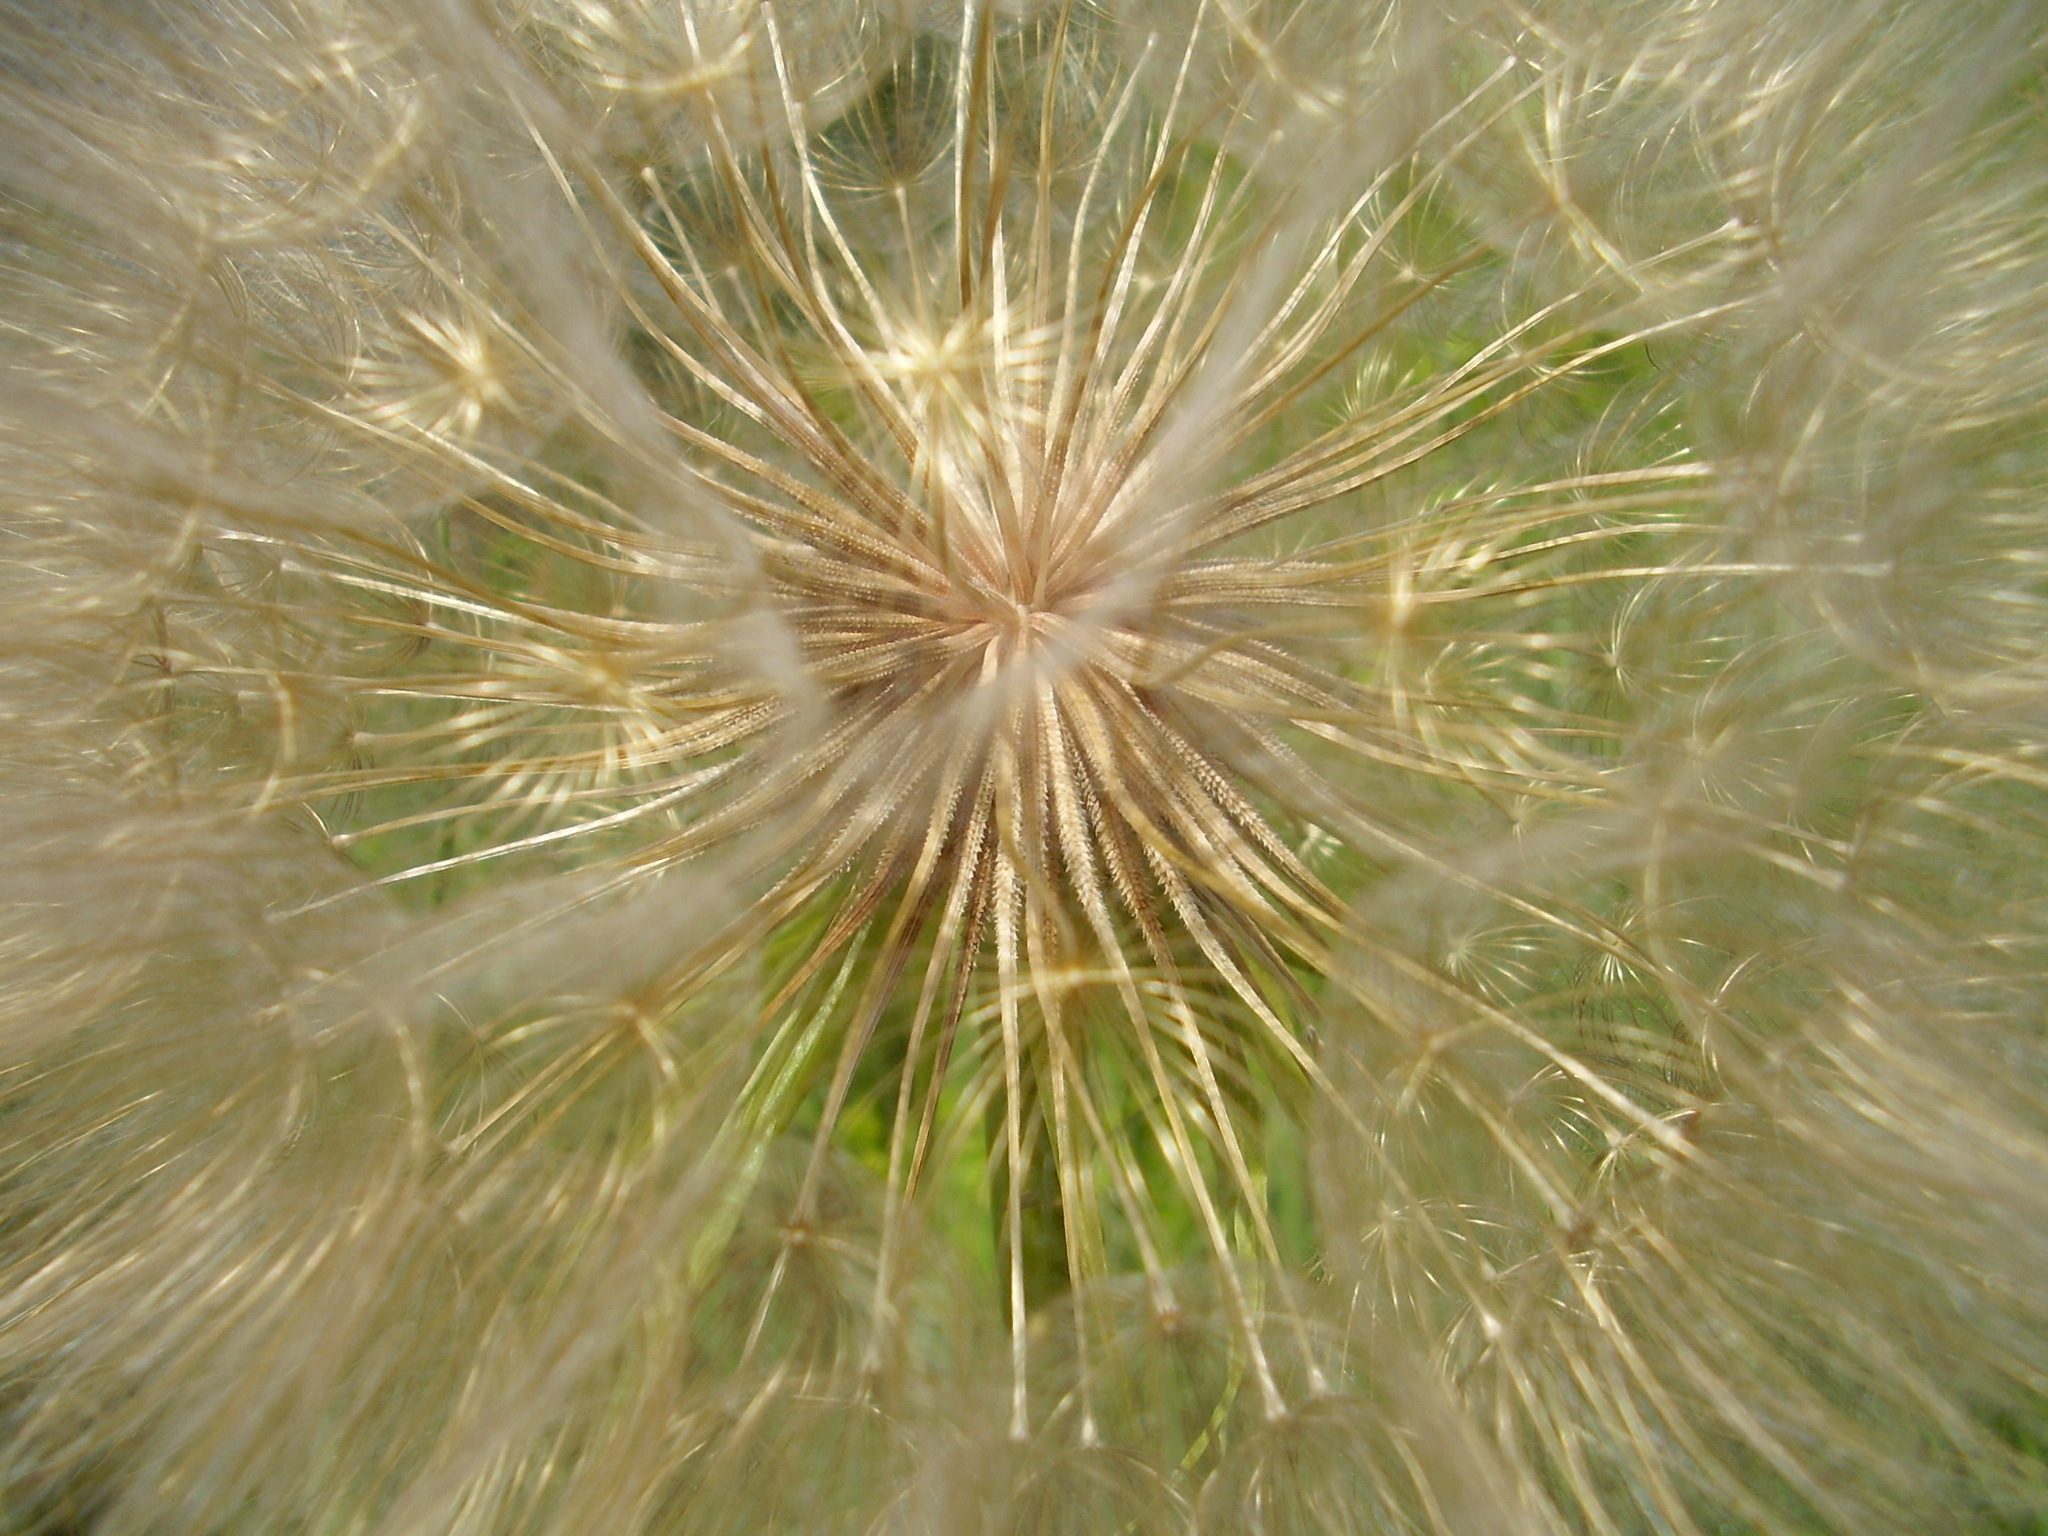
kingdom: Plantae
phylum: Tracheophyta
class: Magnoliopsida
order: Asterales
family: Asteraceae
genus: Tragopogon
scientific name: Tragopogon dubius
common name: Yellow salsify
